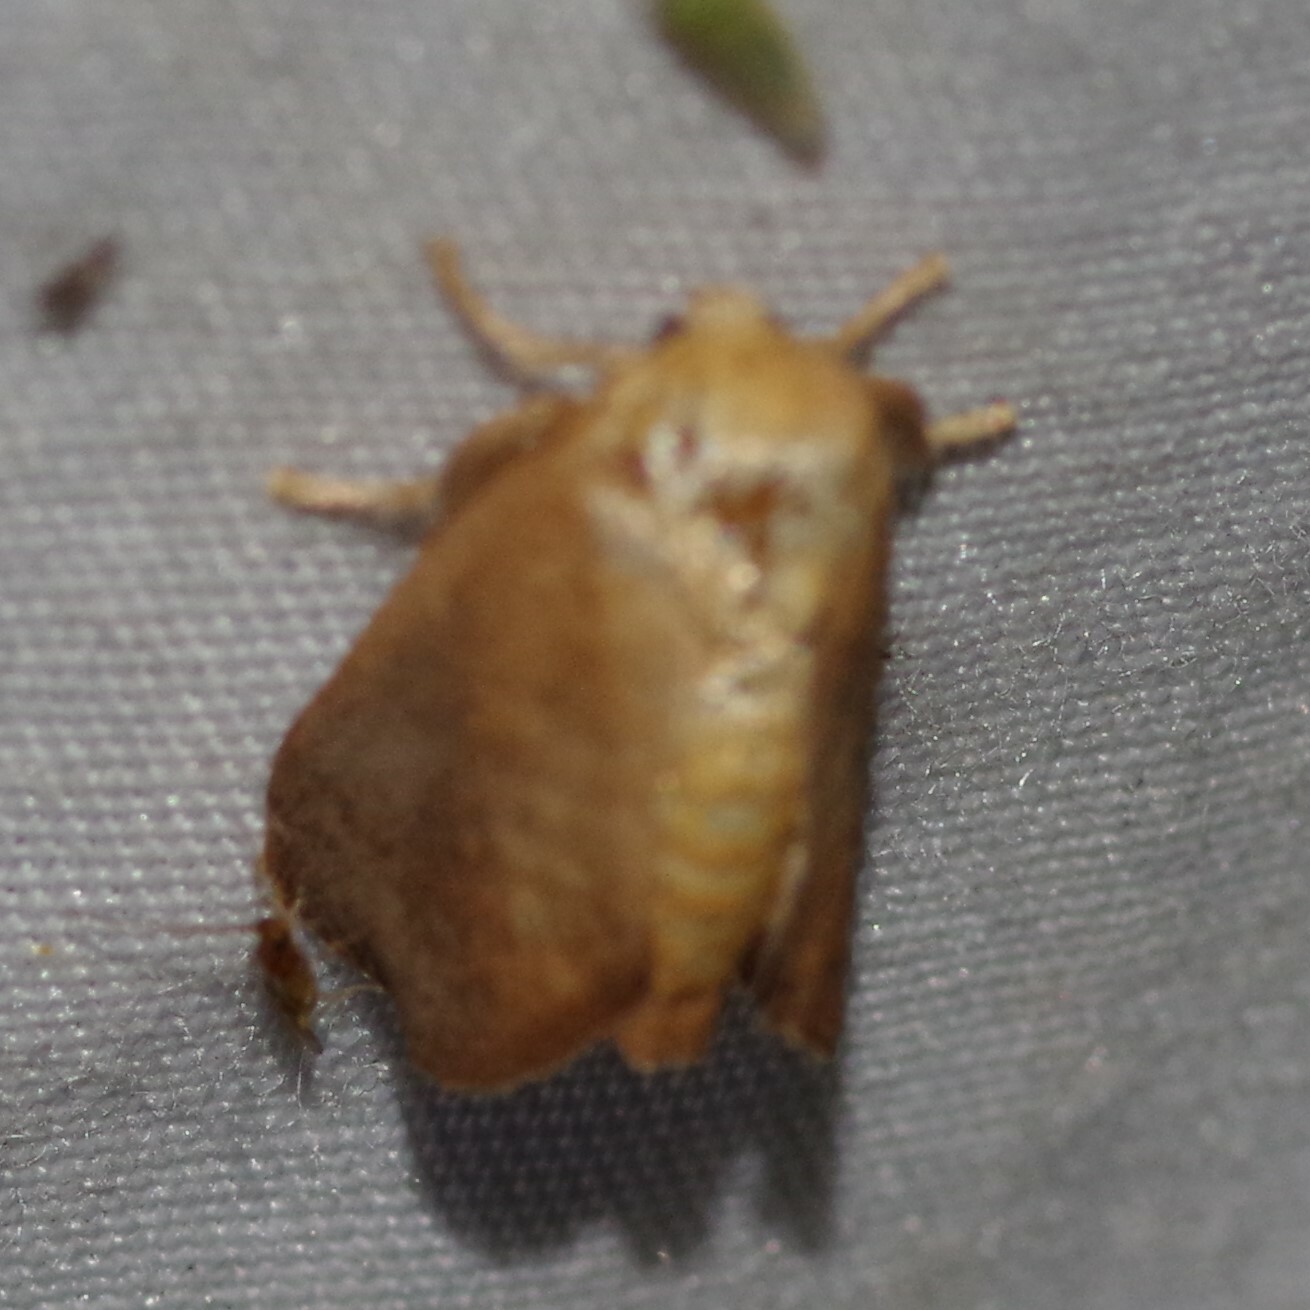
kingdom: Animalia
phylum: Arthropoda
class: Insecta
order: Lepidoptera
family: Limacodidae
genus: Isa
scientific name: Isa textula
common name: Crowned slug moth
